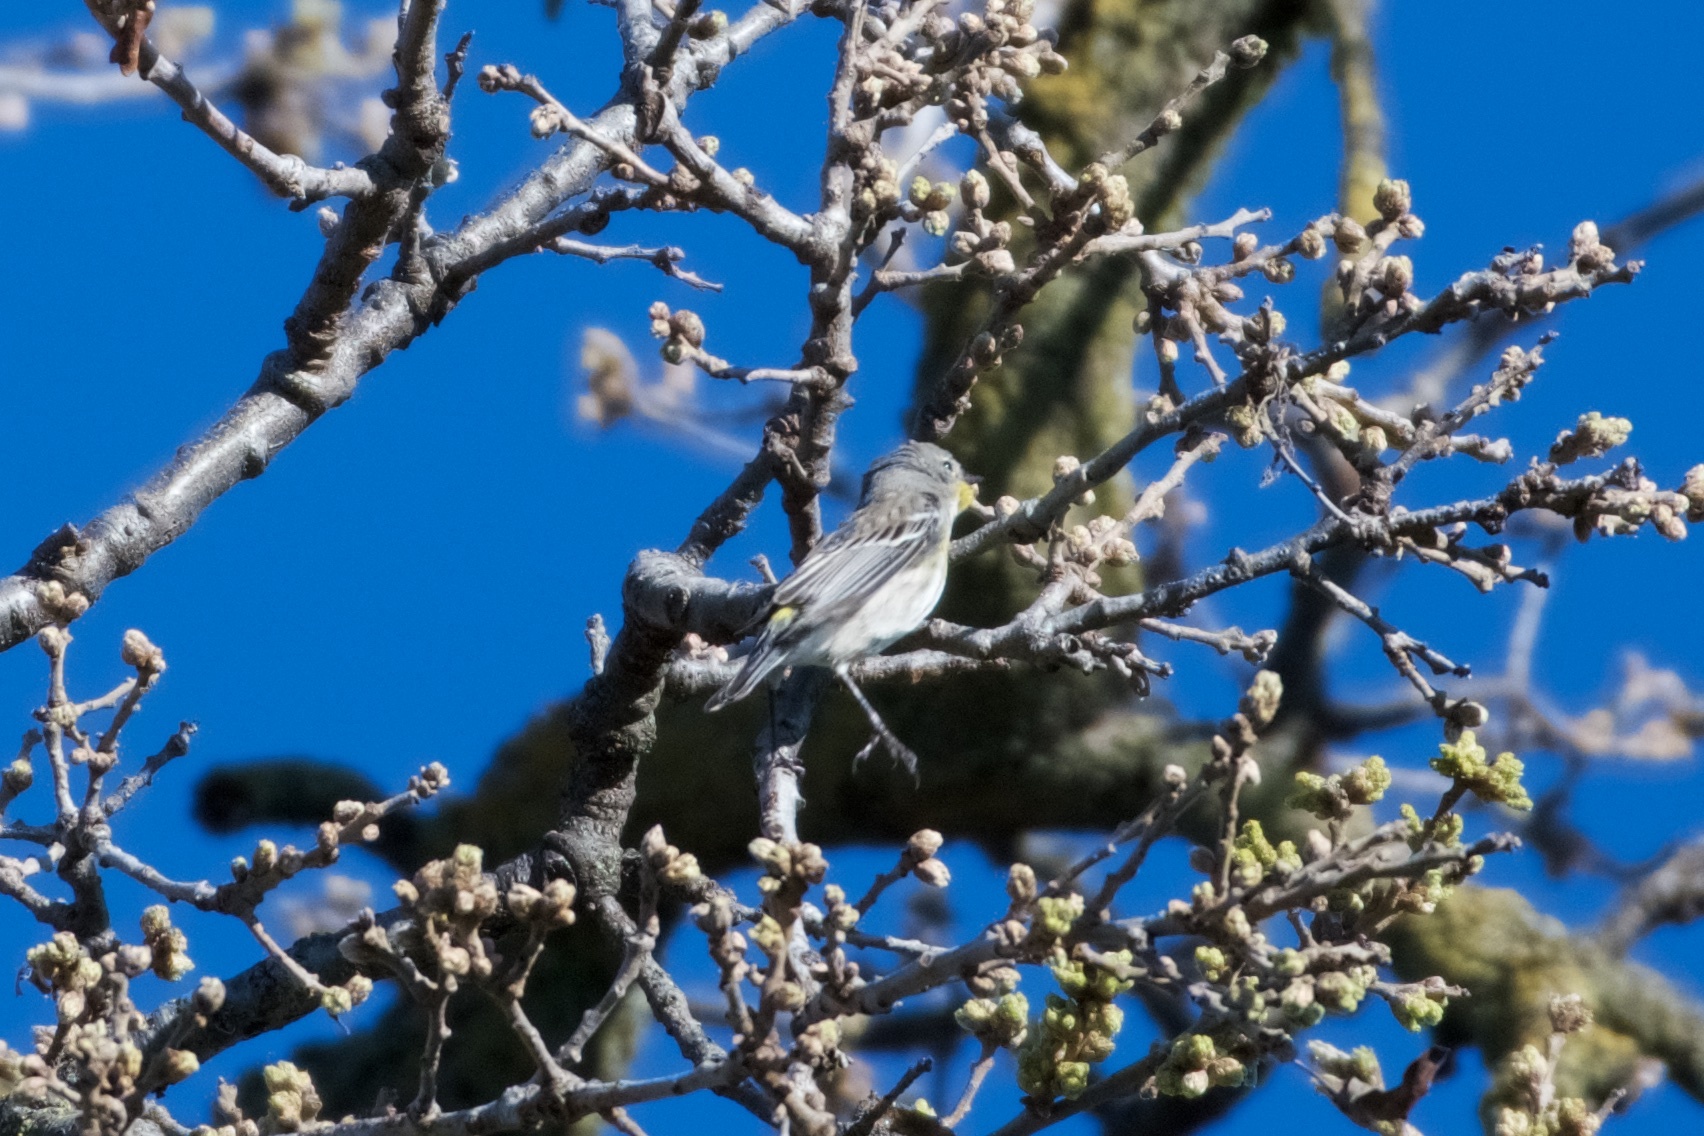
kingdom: Animalia
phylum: Chordata
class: Aves
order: Passeriformes
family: Parulidae
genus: Setophaga
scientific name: Setophaga coronata
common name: Myrtle warbler
